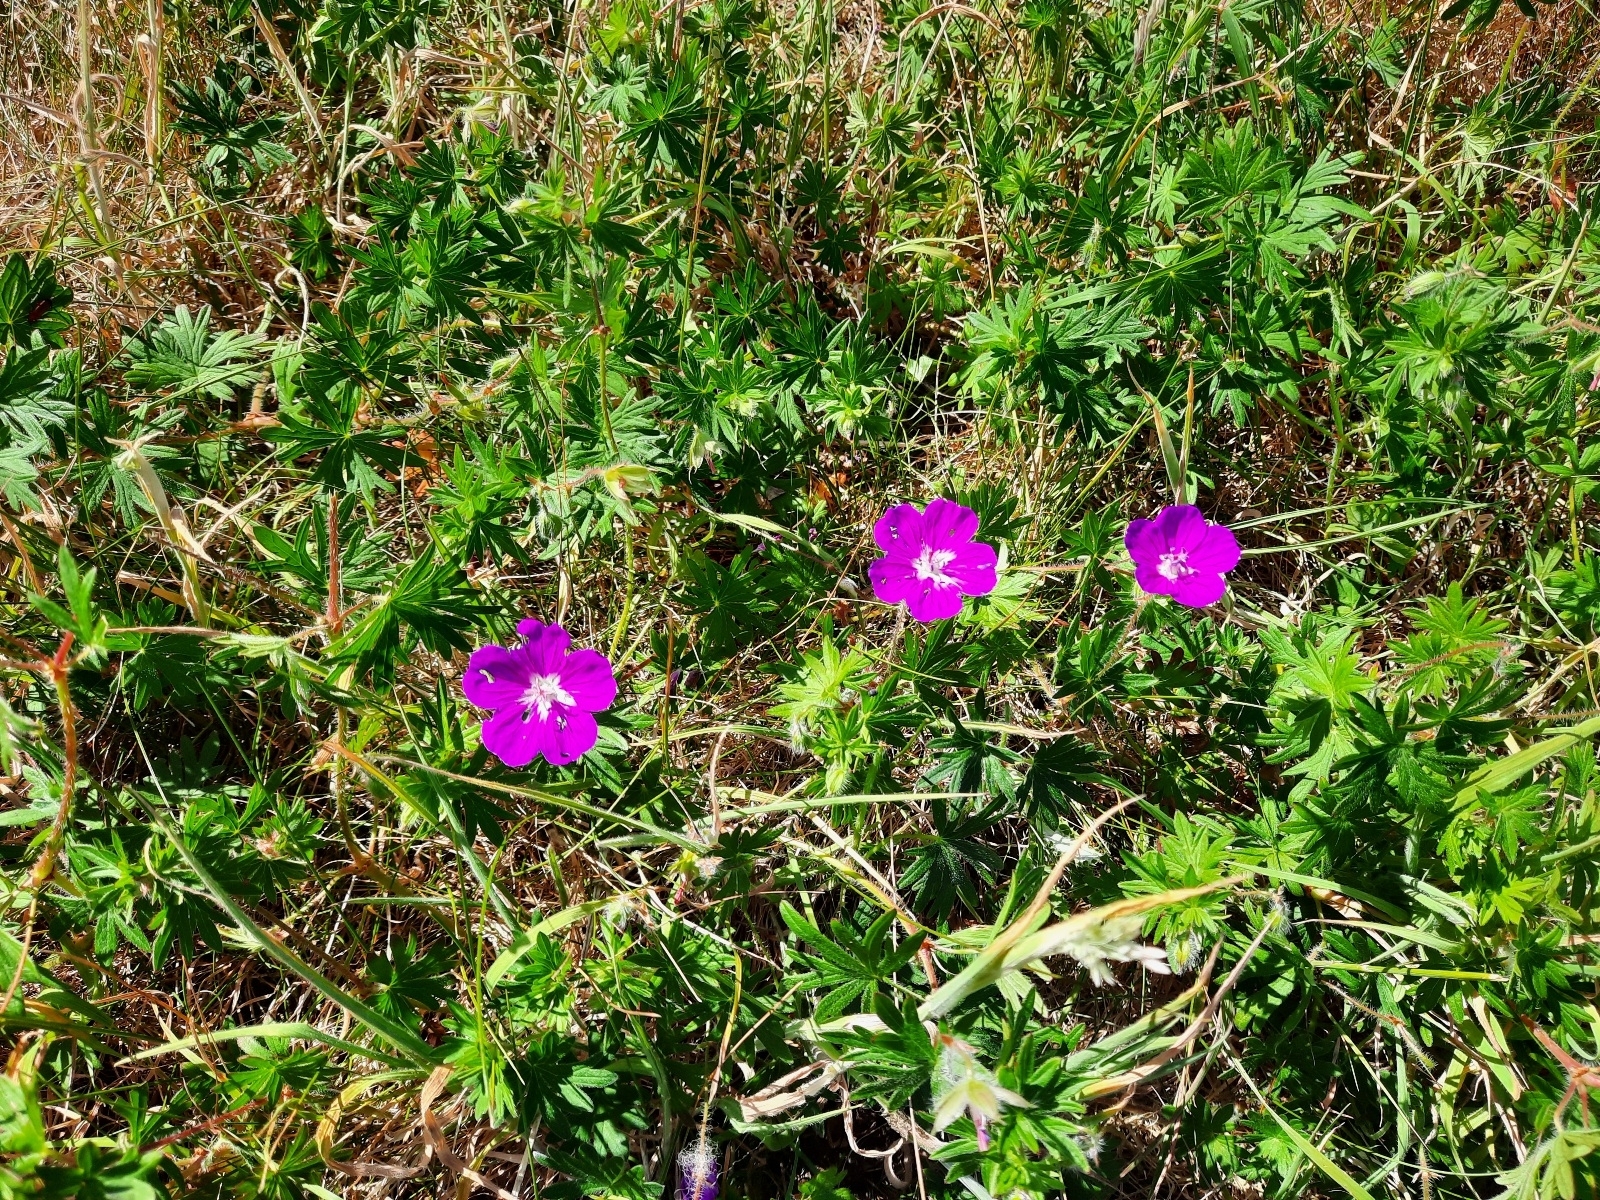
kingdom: Plantae
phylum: Tracheophyta
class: Magnoliopsida
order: Geraniales
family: Geraniaceae
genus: Geranium
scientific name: Geranium sanguineum
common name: Bloody crane's-bill
